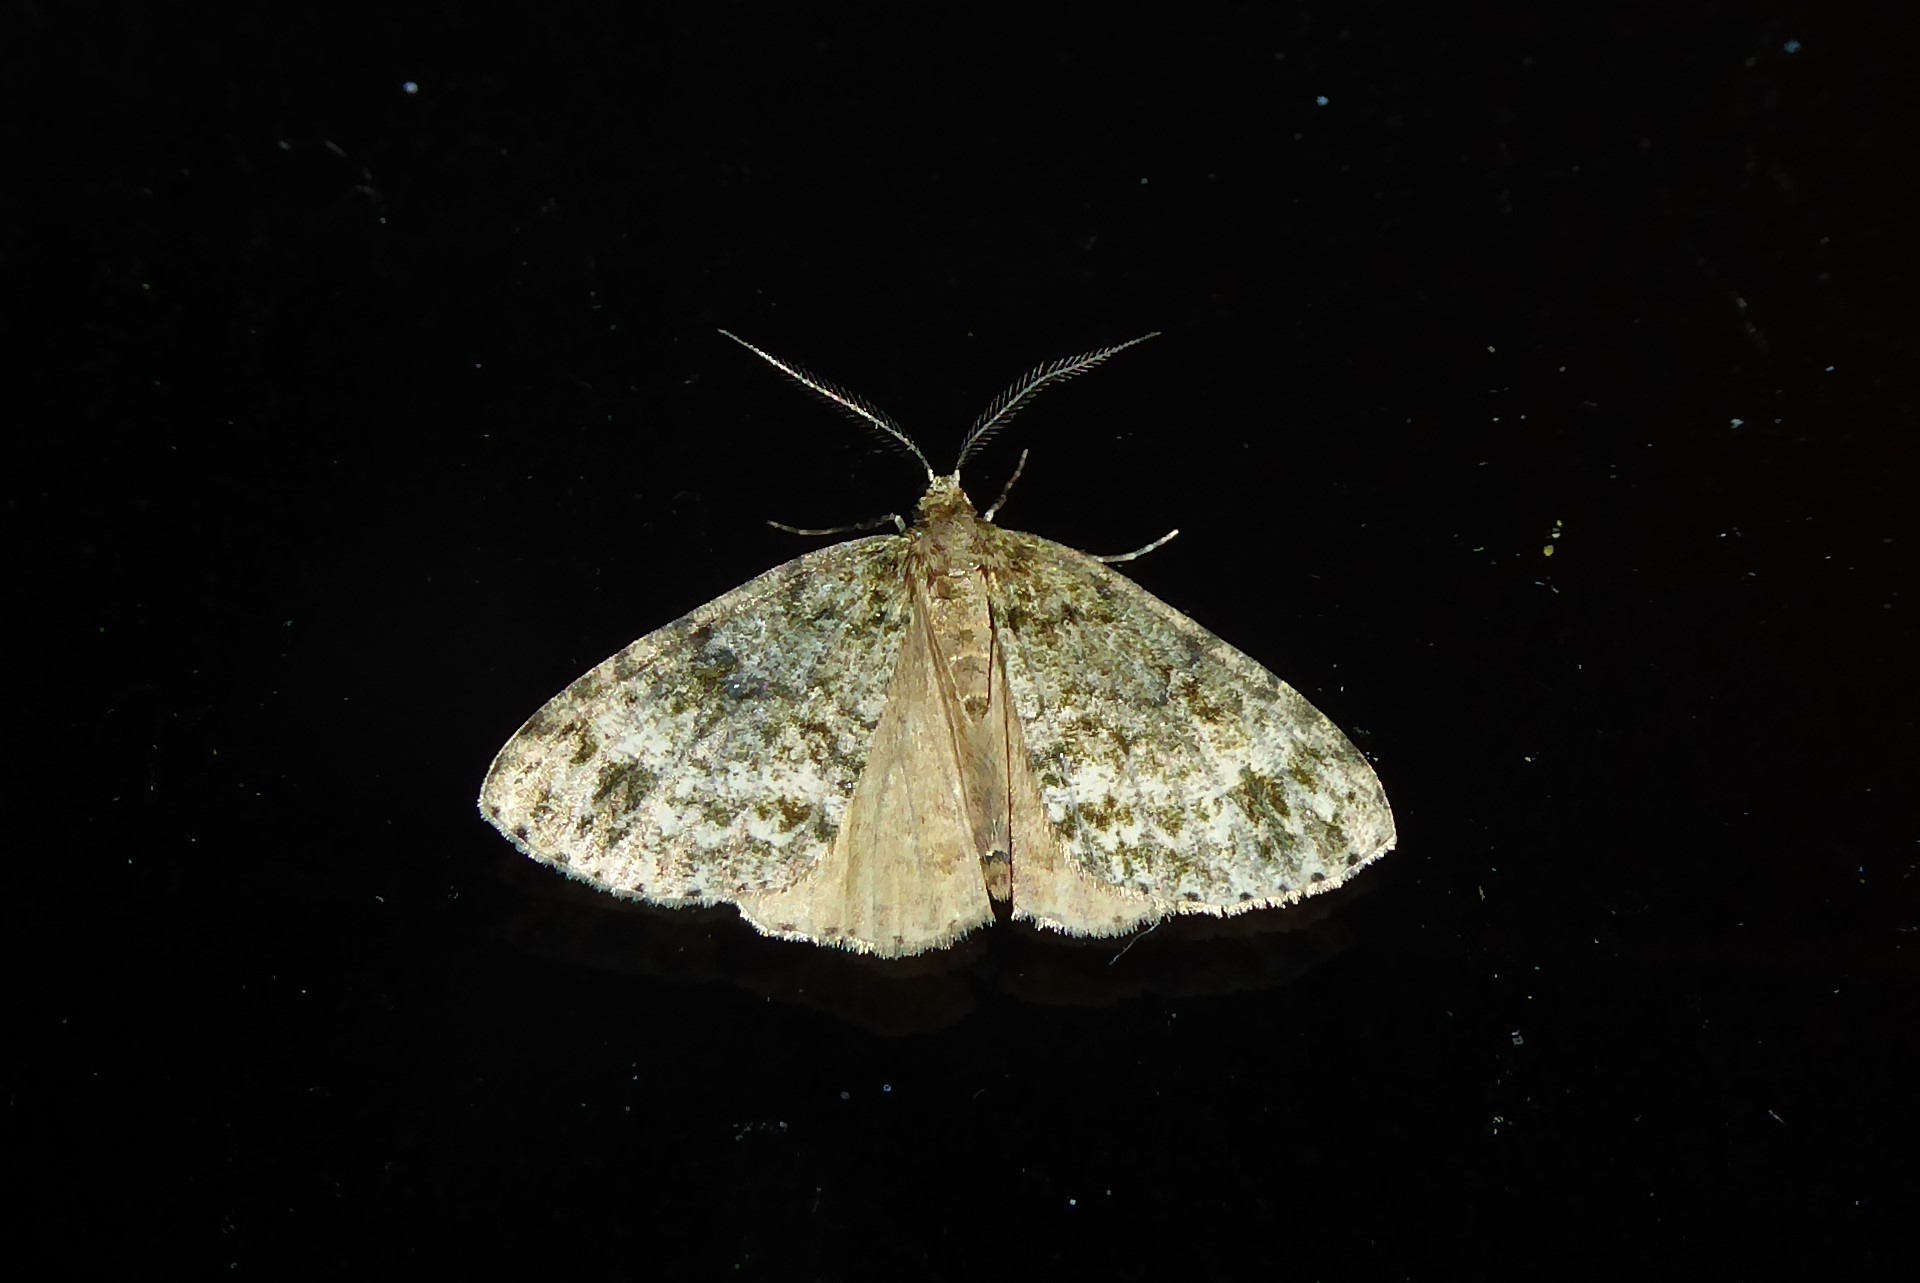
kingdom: Animalia
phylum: Arthropoda
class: Insecta
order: Lepidoptera
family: Geometridae
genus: Pseudocoremia
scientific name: Pseudocoremia indistincta
